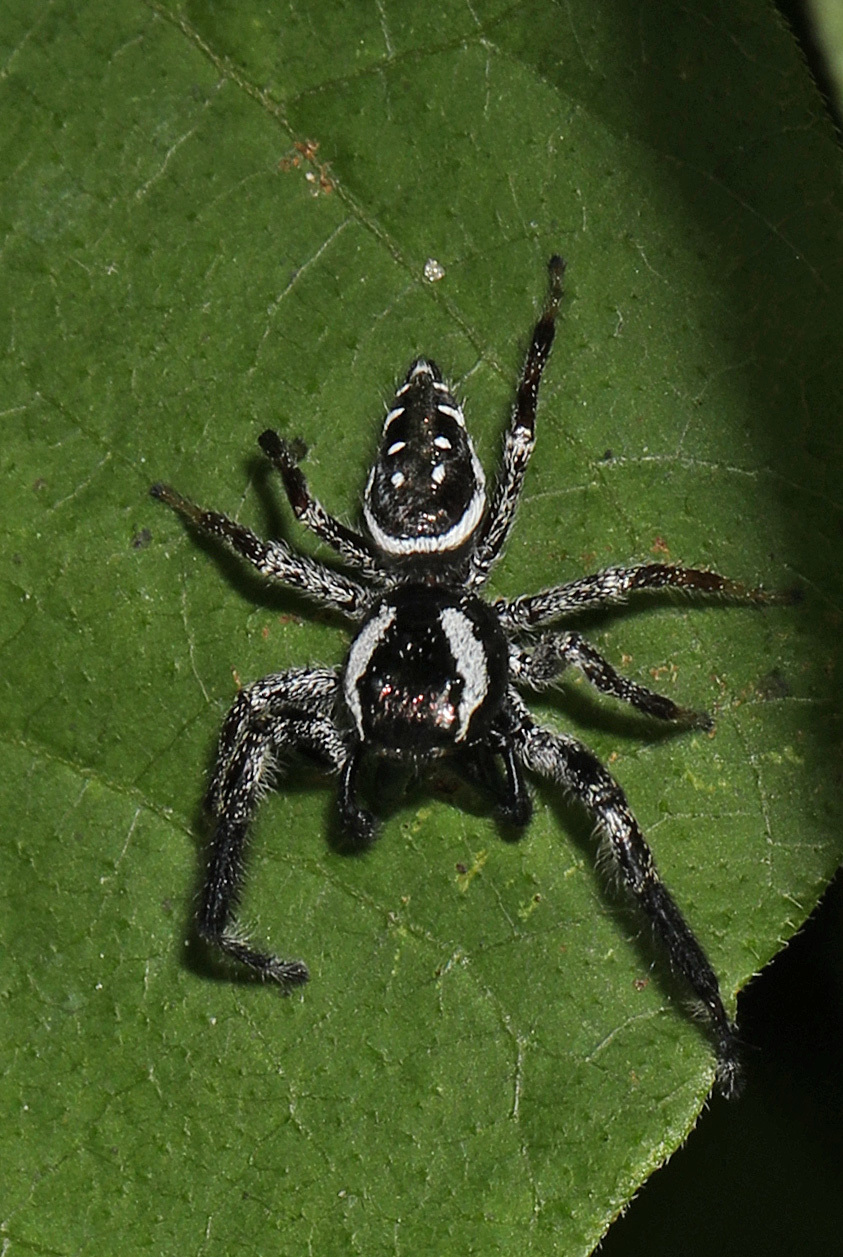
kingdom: Animalia
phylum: Arthropoda
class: Arachnida
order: Araneae
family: Salticidae
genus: Paraphidippus
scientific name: Paraphidippus aurantius
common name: Jumping spiders
